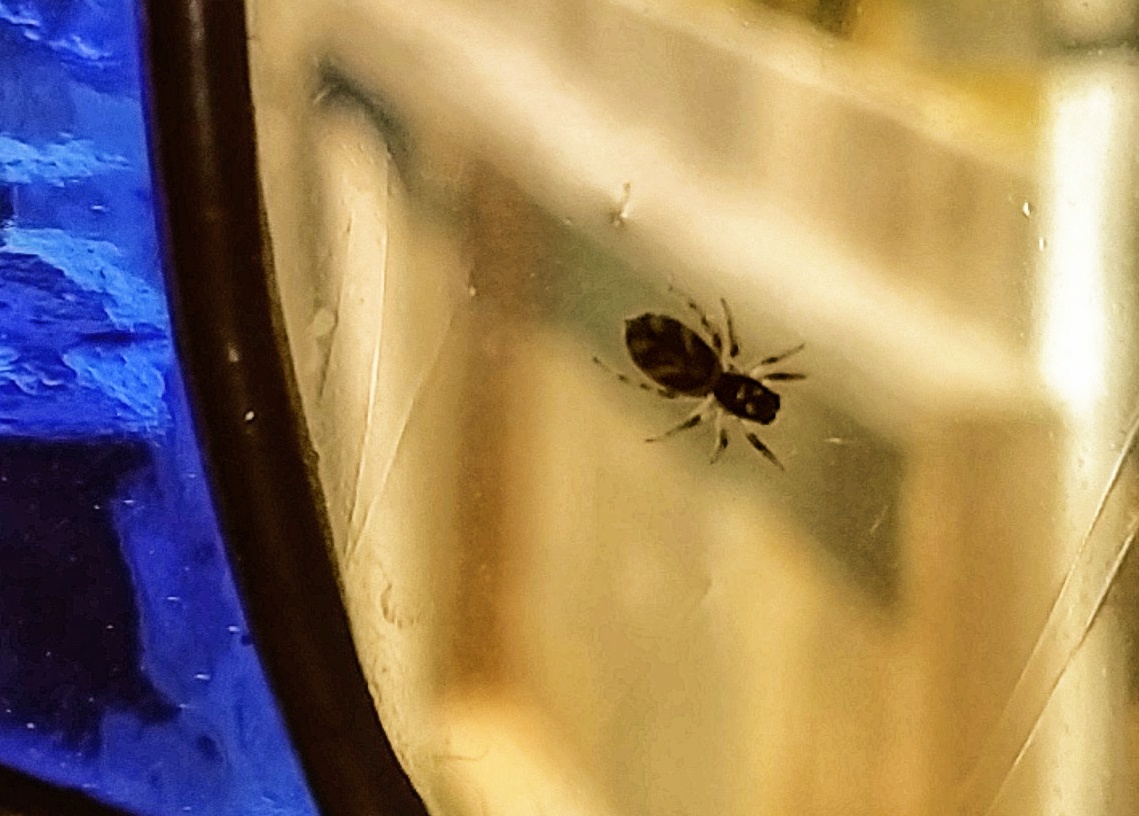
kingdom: Animalia
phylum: Arthropoda
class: Arachnida
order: Araneae
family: Salticidae
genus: Salticus
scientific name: Salticus scenicus
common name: Zebra jumper
